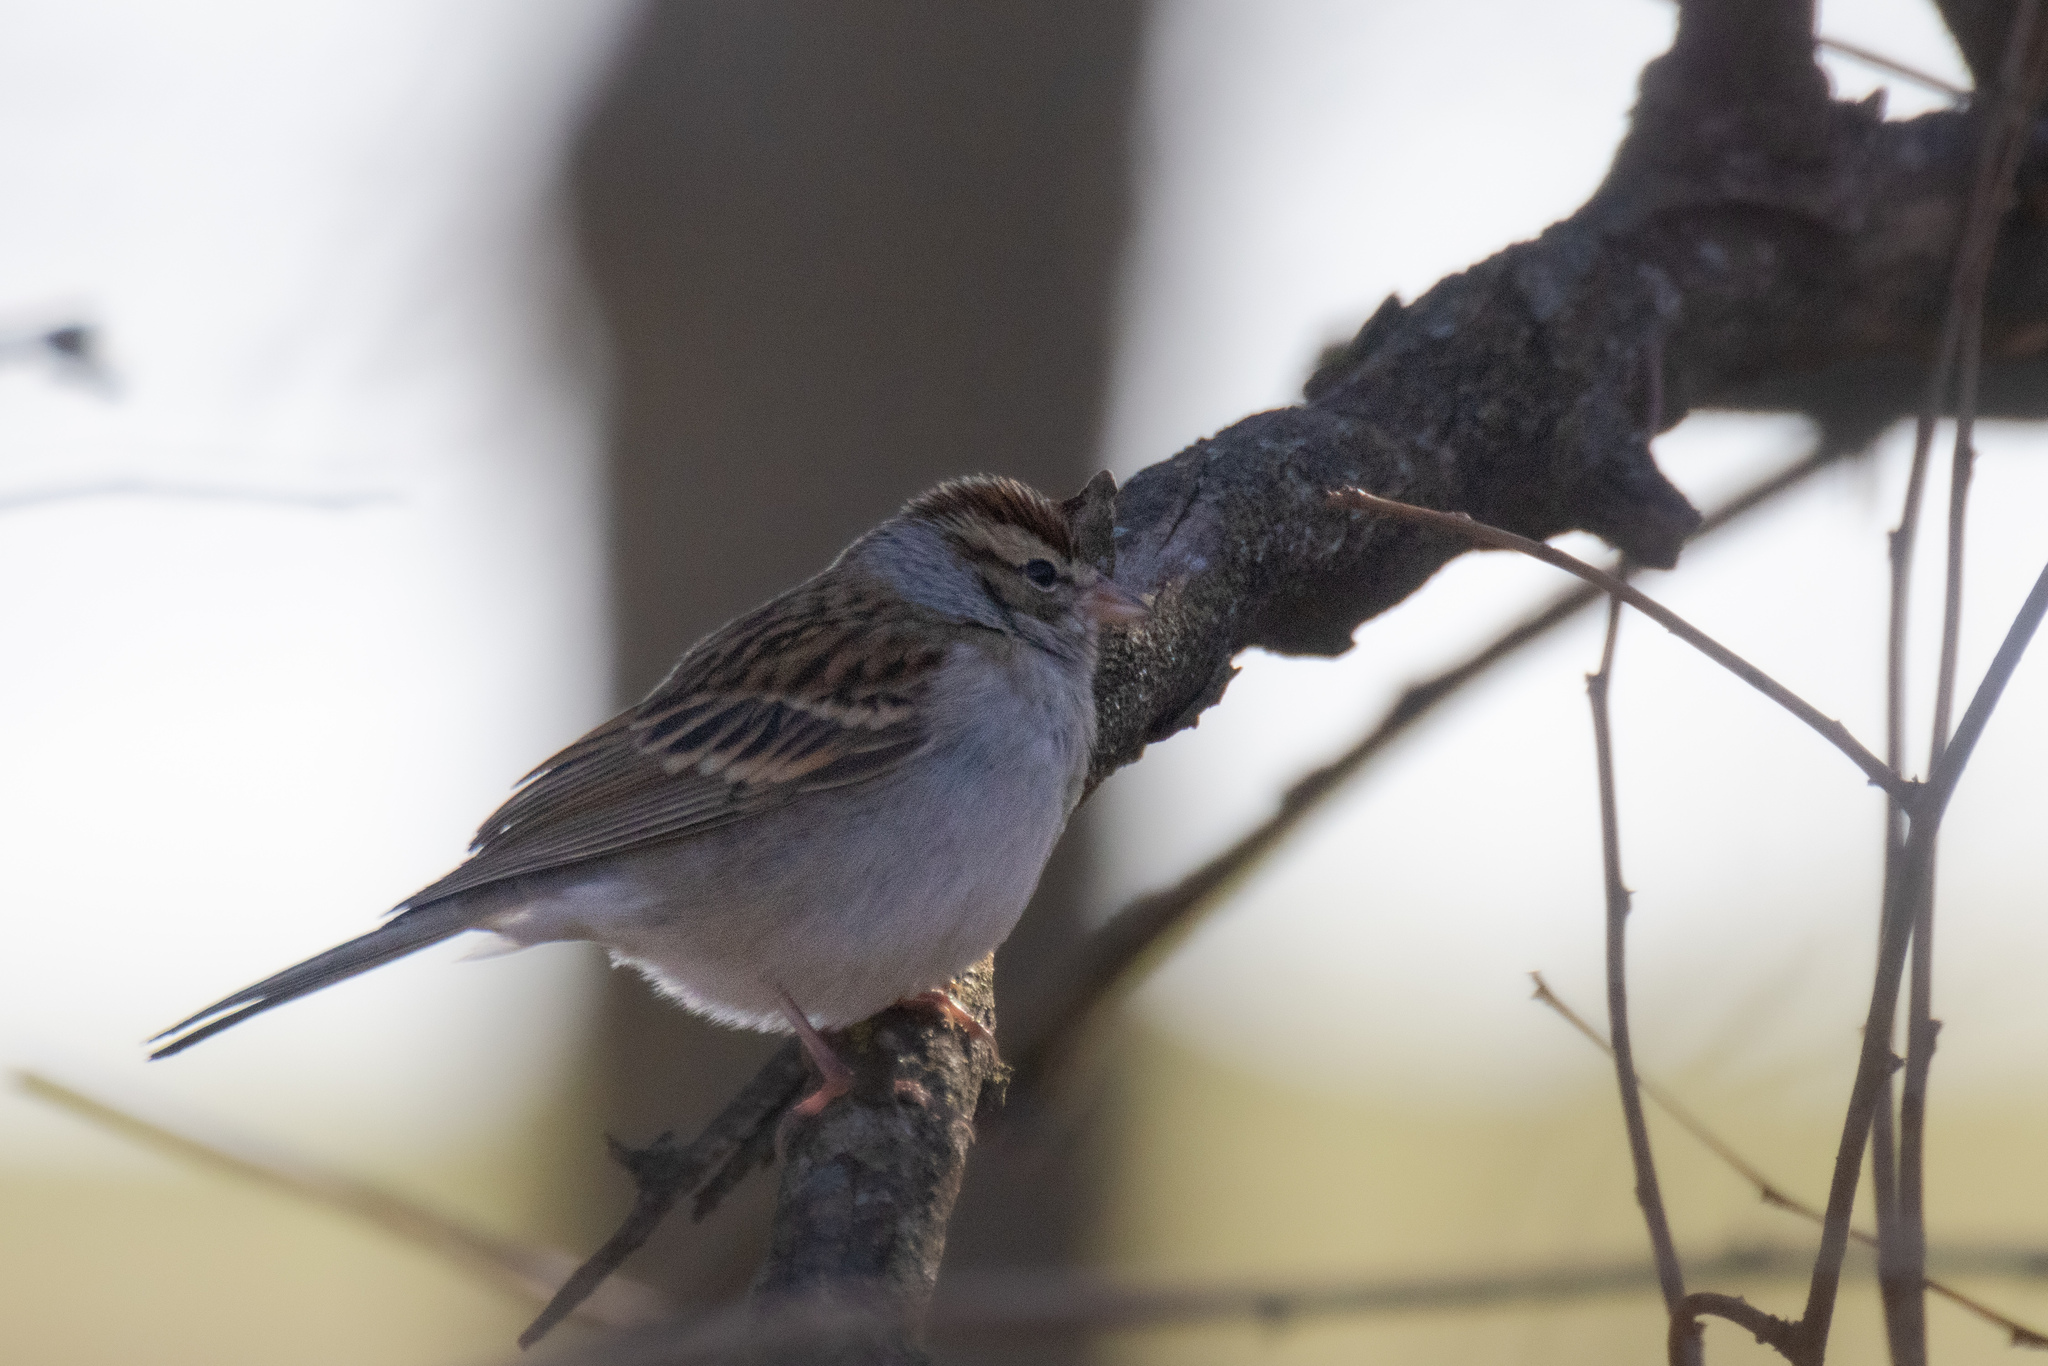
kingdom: Animalia
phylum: Chordata
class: Aves
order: Passeriformes
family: Passerellidae
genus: Spizella
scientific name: Spizella passerina
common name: Chipping sparrow
